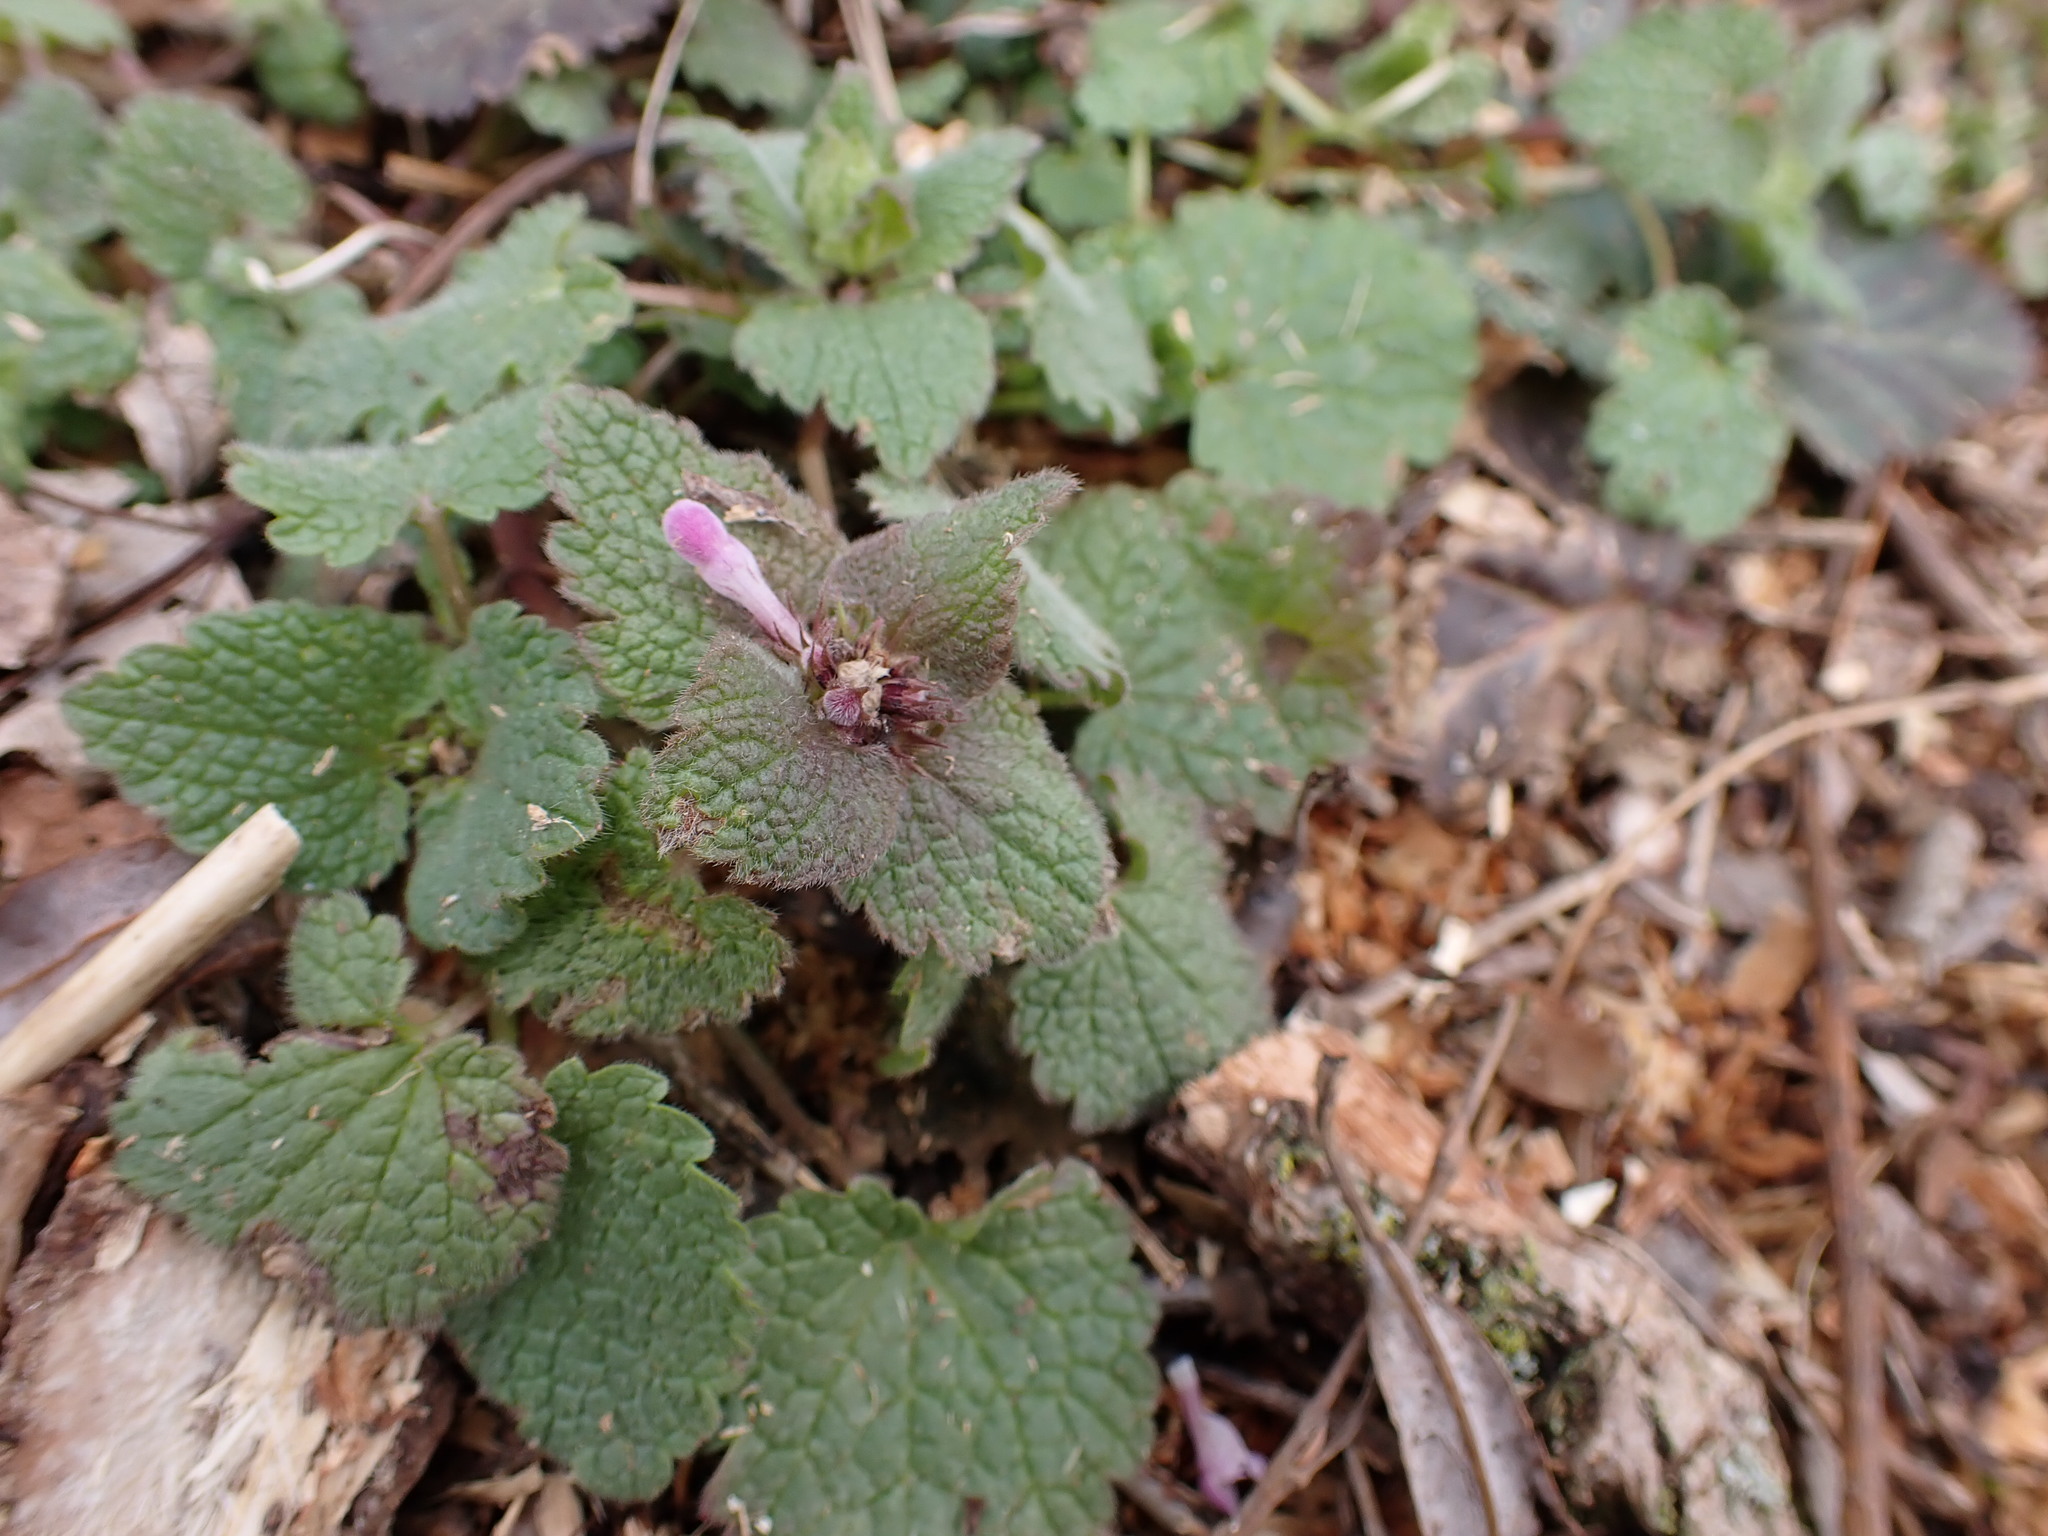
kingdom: Plantae
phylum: Tracheophyta
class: Magnoliopsida
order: Lamiales
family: Lamiaceae
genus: Lamium
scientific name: Lamium purpureum
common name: Red dead-nettle
